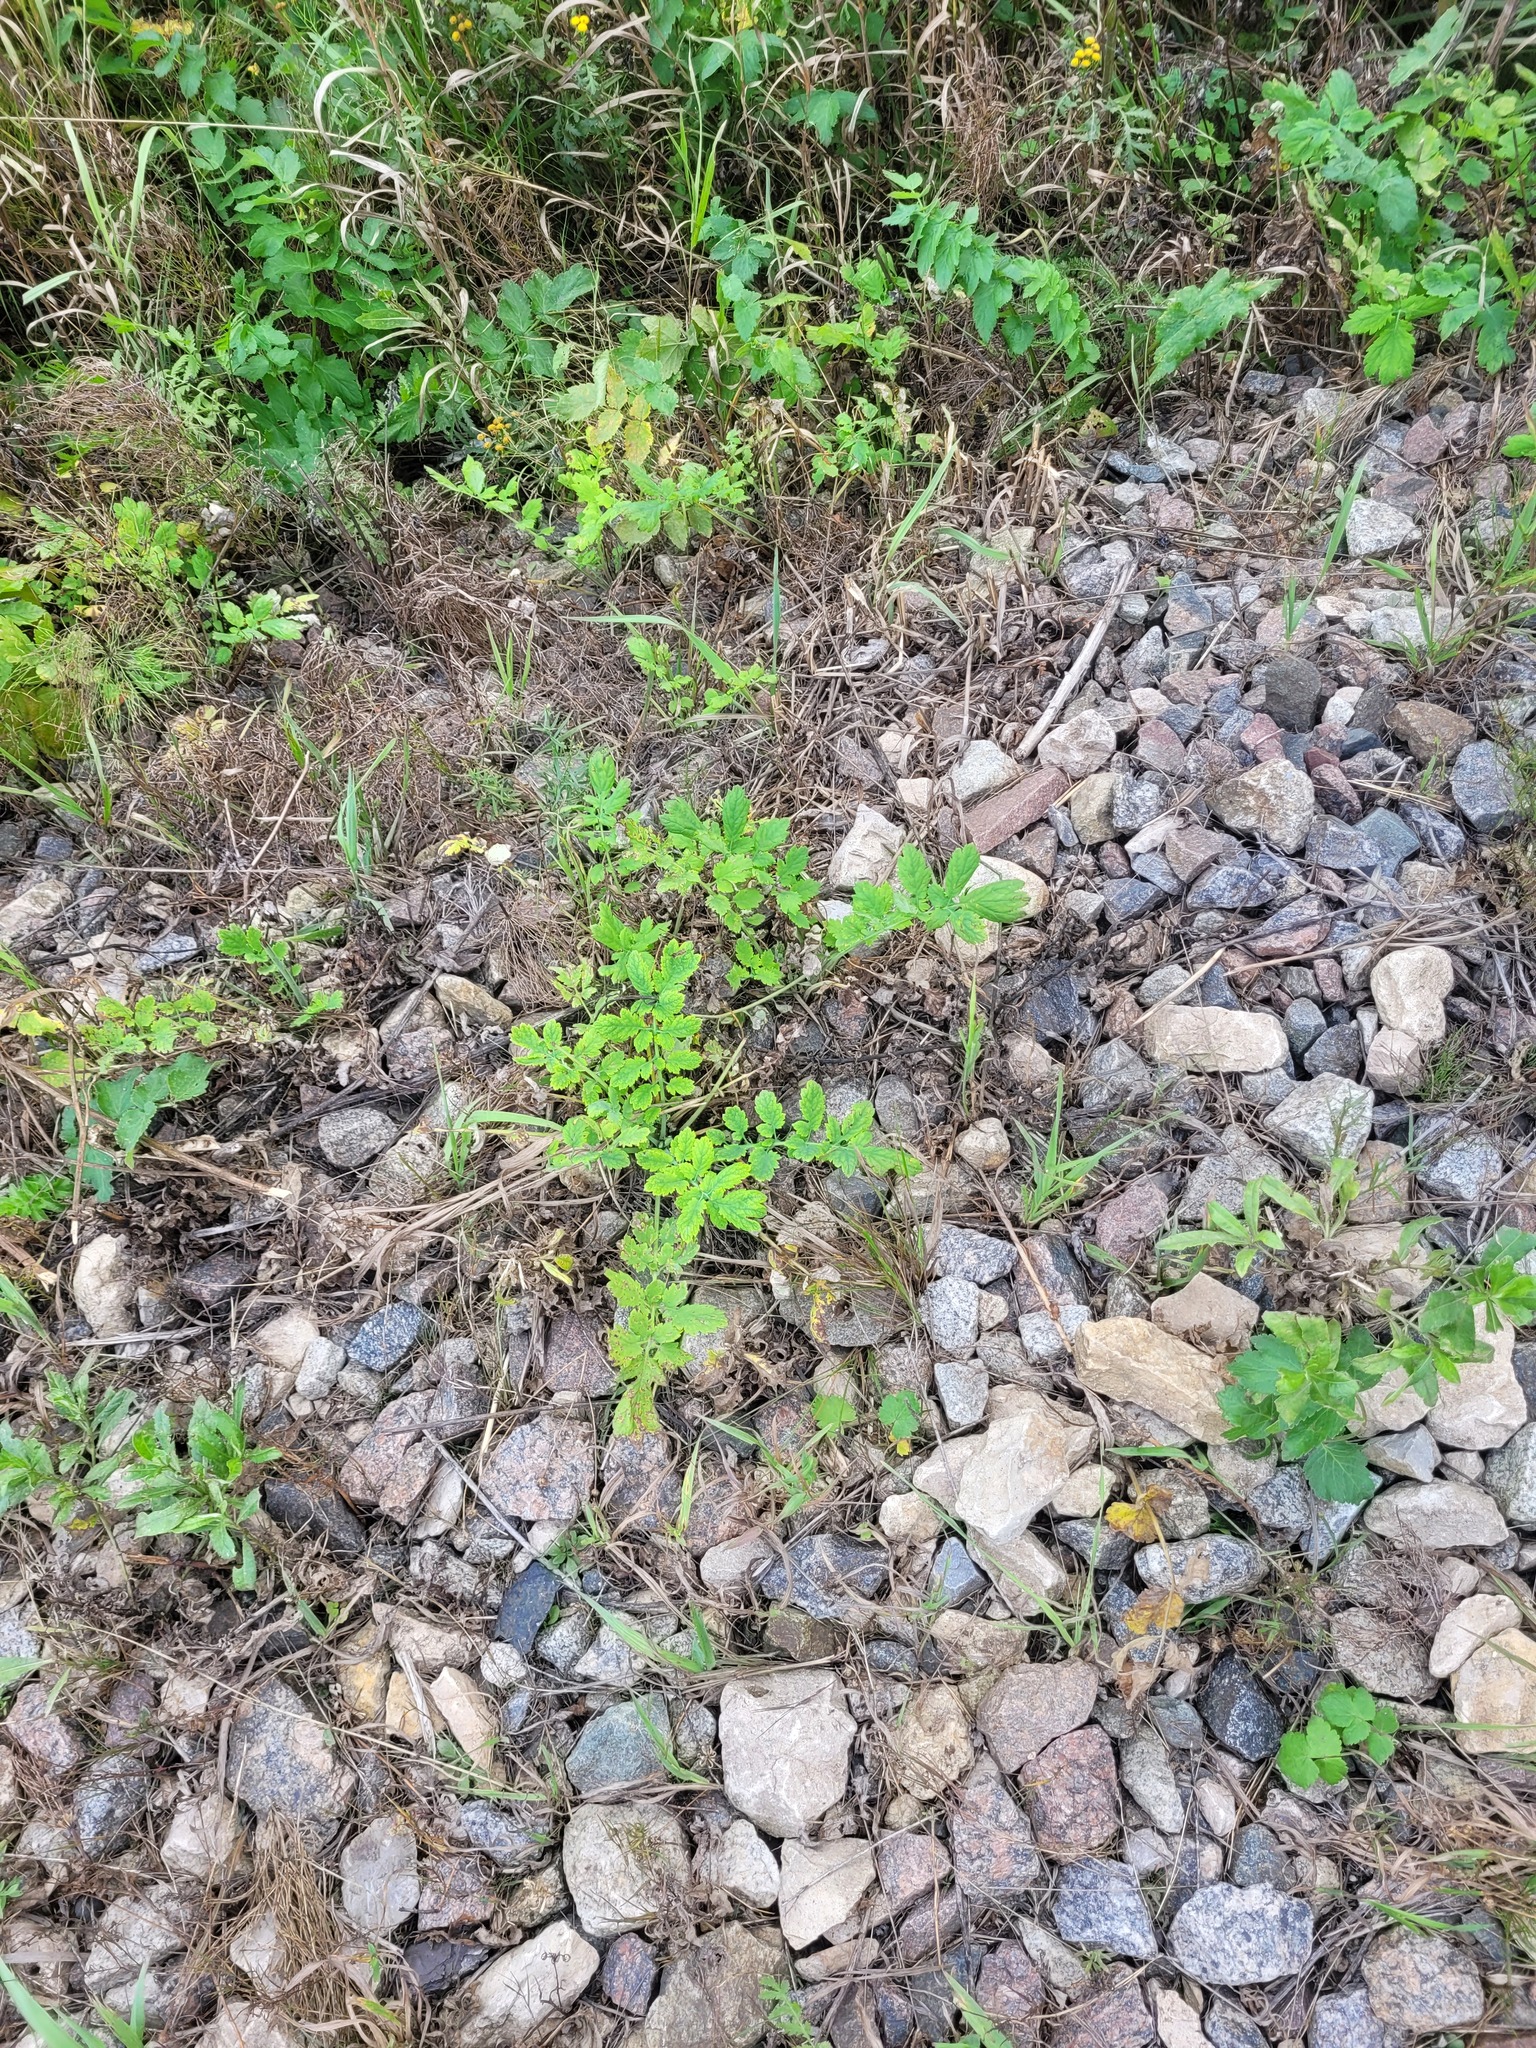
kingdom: Plantae
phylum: Tracheophyta
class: Magnoliopsida
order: Ranunculales
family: Papaveraceae
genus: Chelidonium
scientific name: Chelidonium majus
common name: Greater celandine
